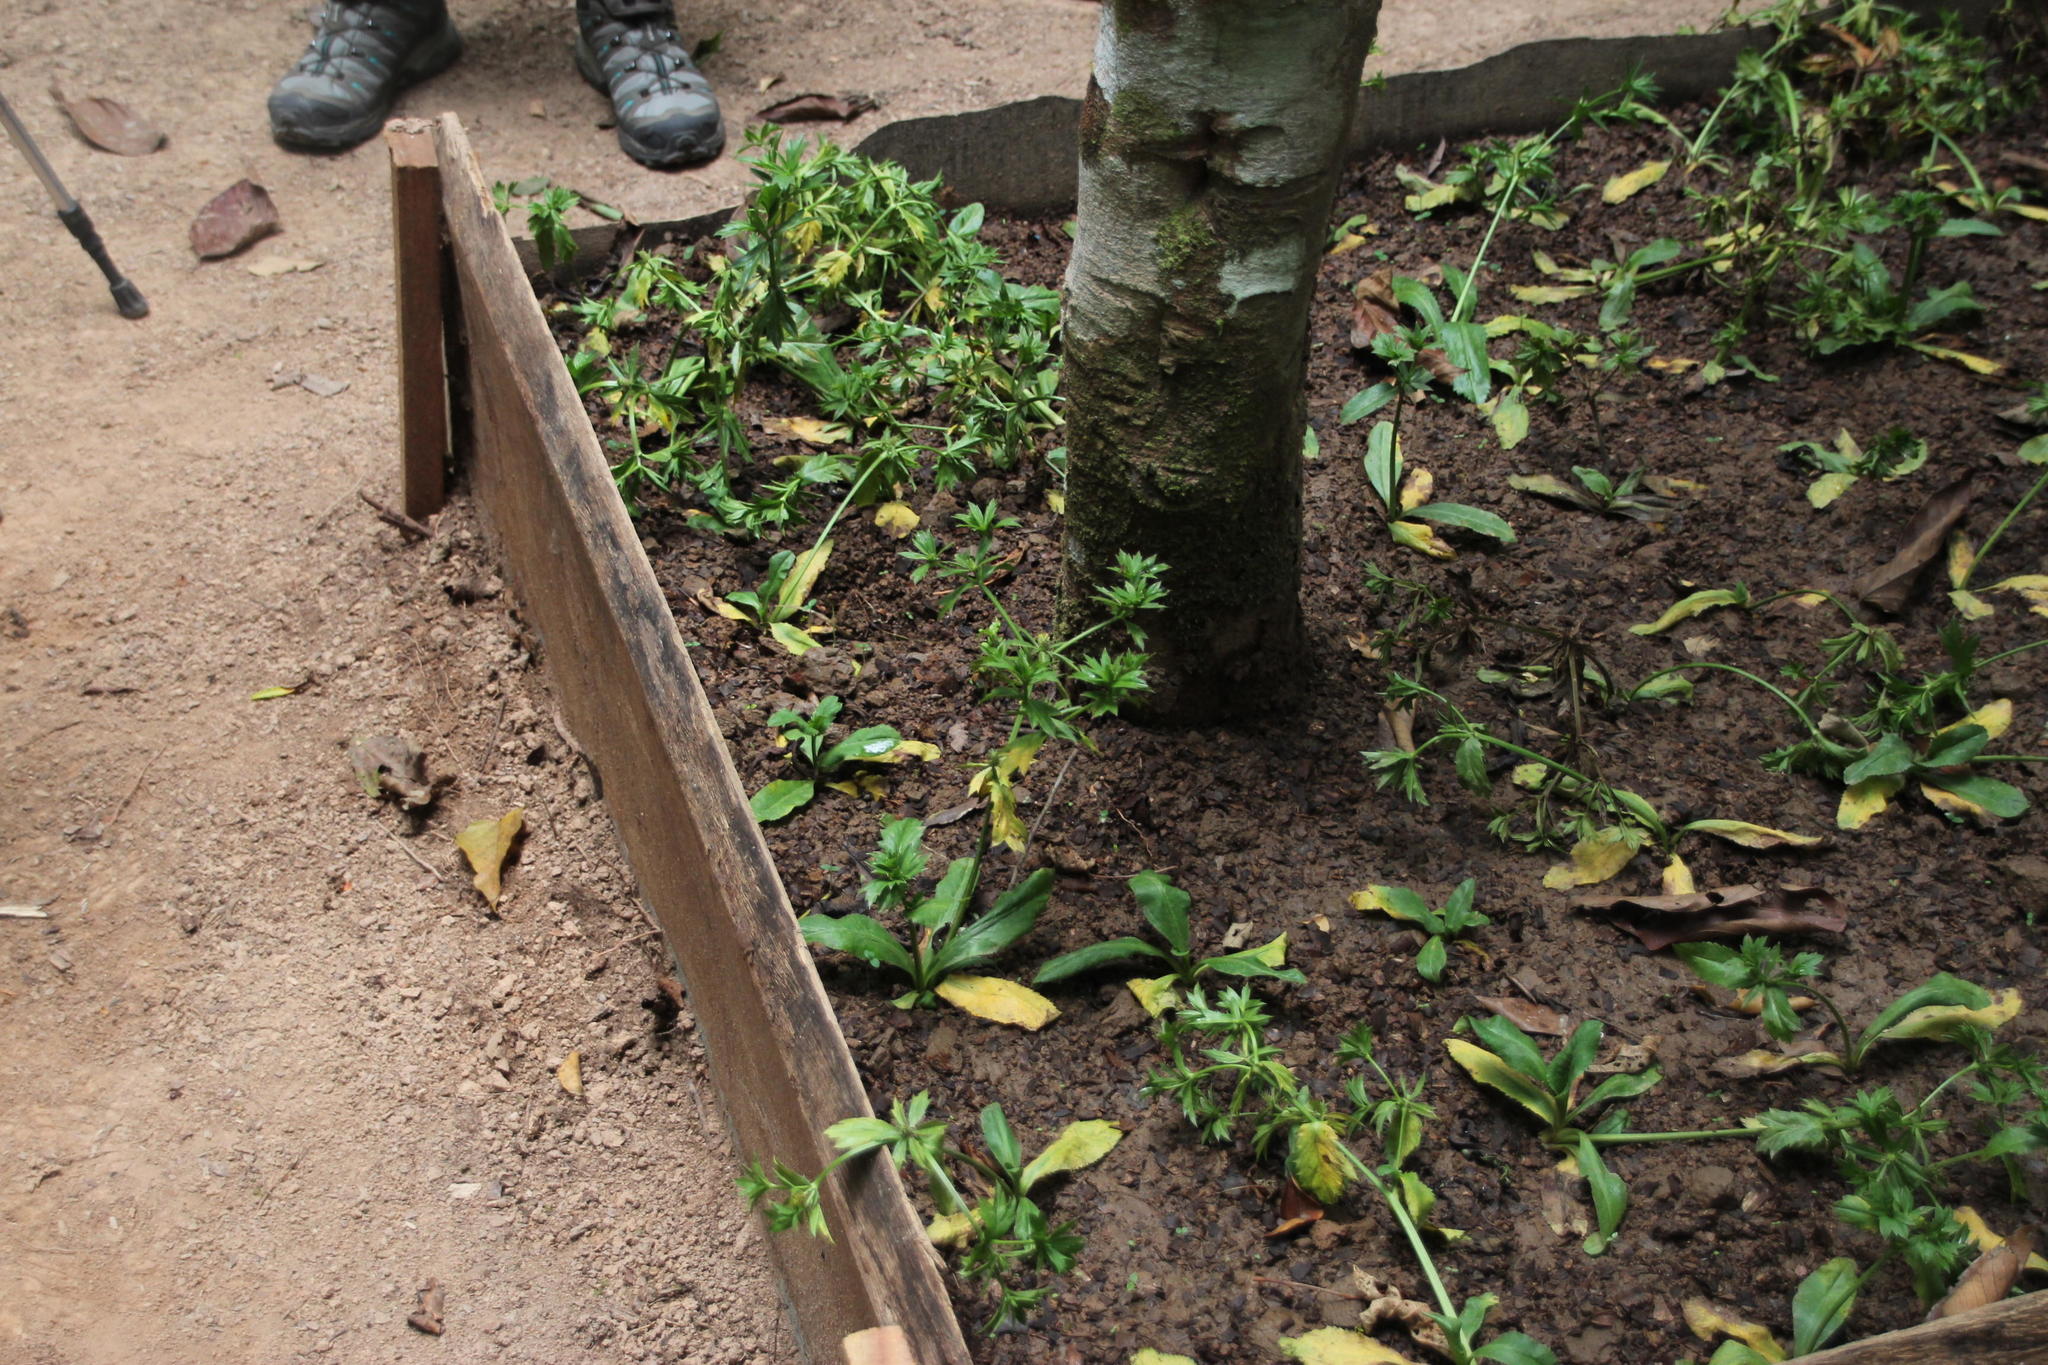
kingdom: Plantae
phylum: Tracheophyta
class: Magnoliopsida
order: Apiales
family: Apiaceae
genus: Eryngium
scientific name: Eryngium foetidum
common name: Fitweed
